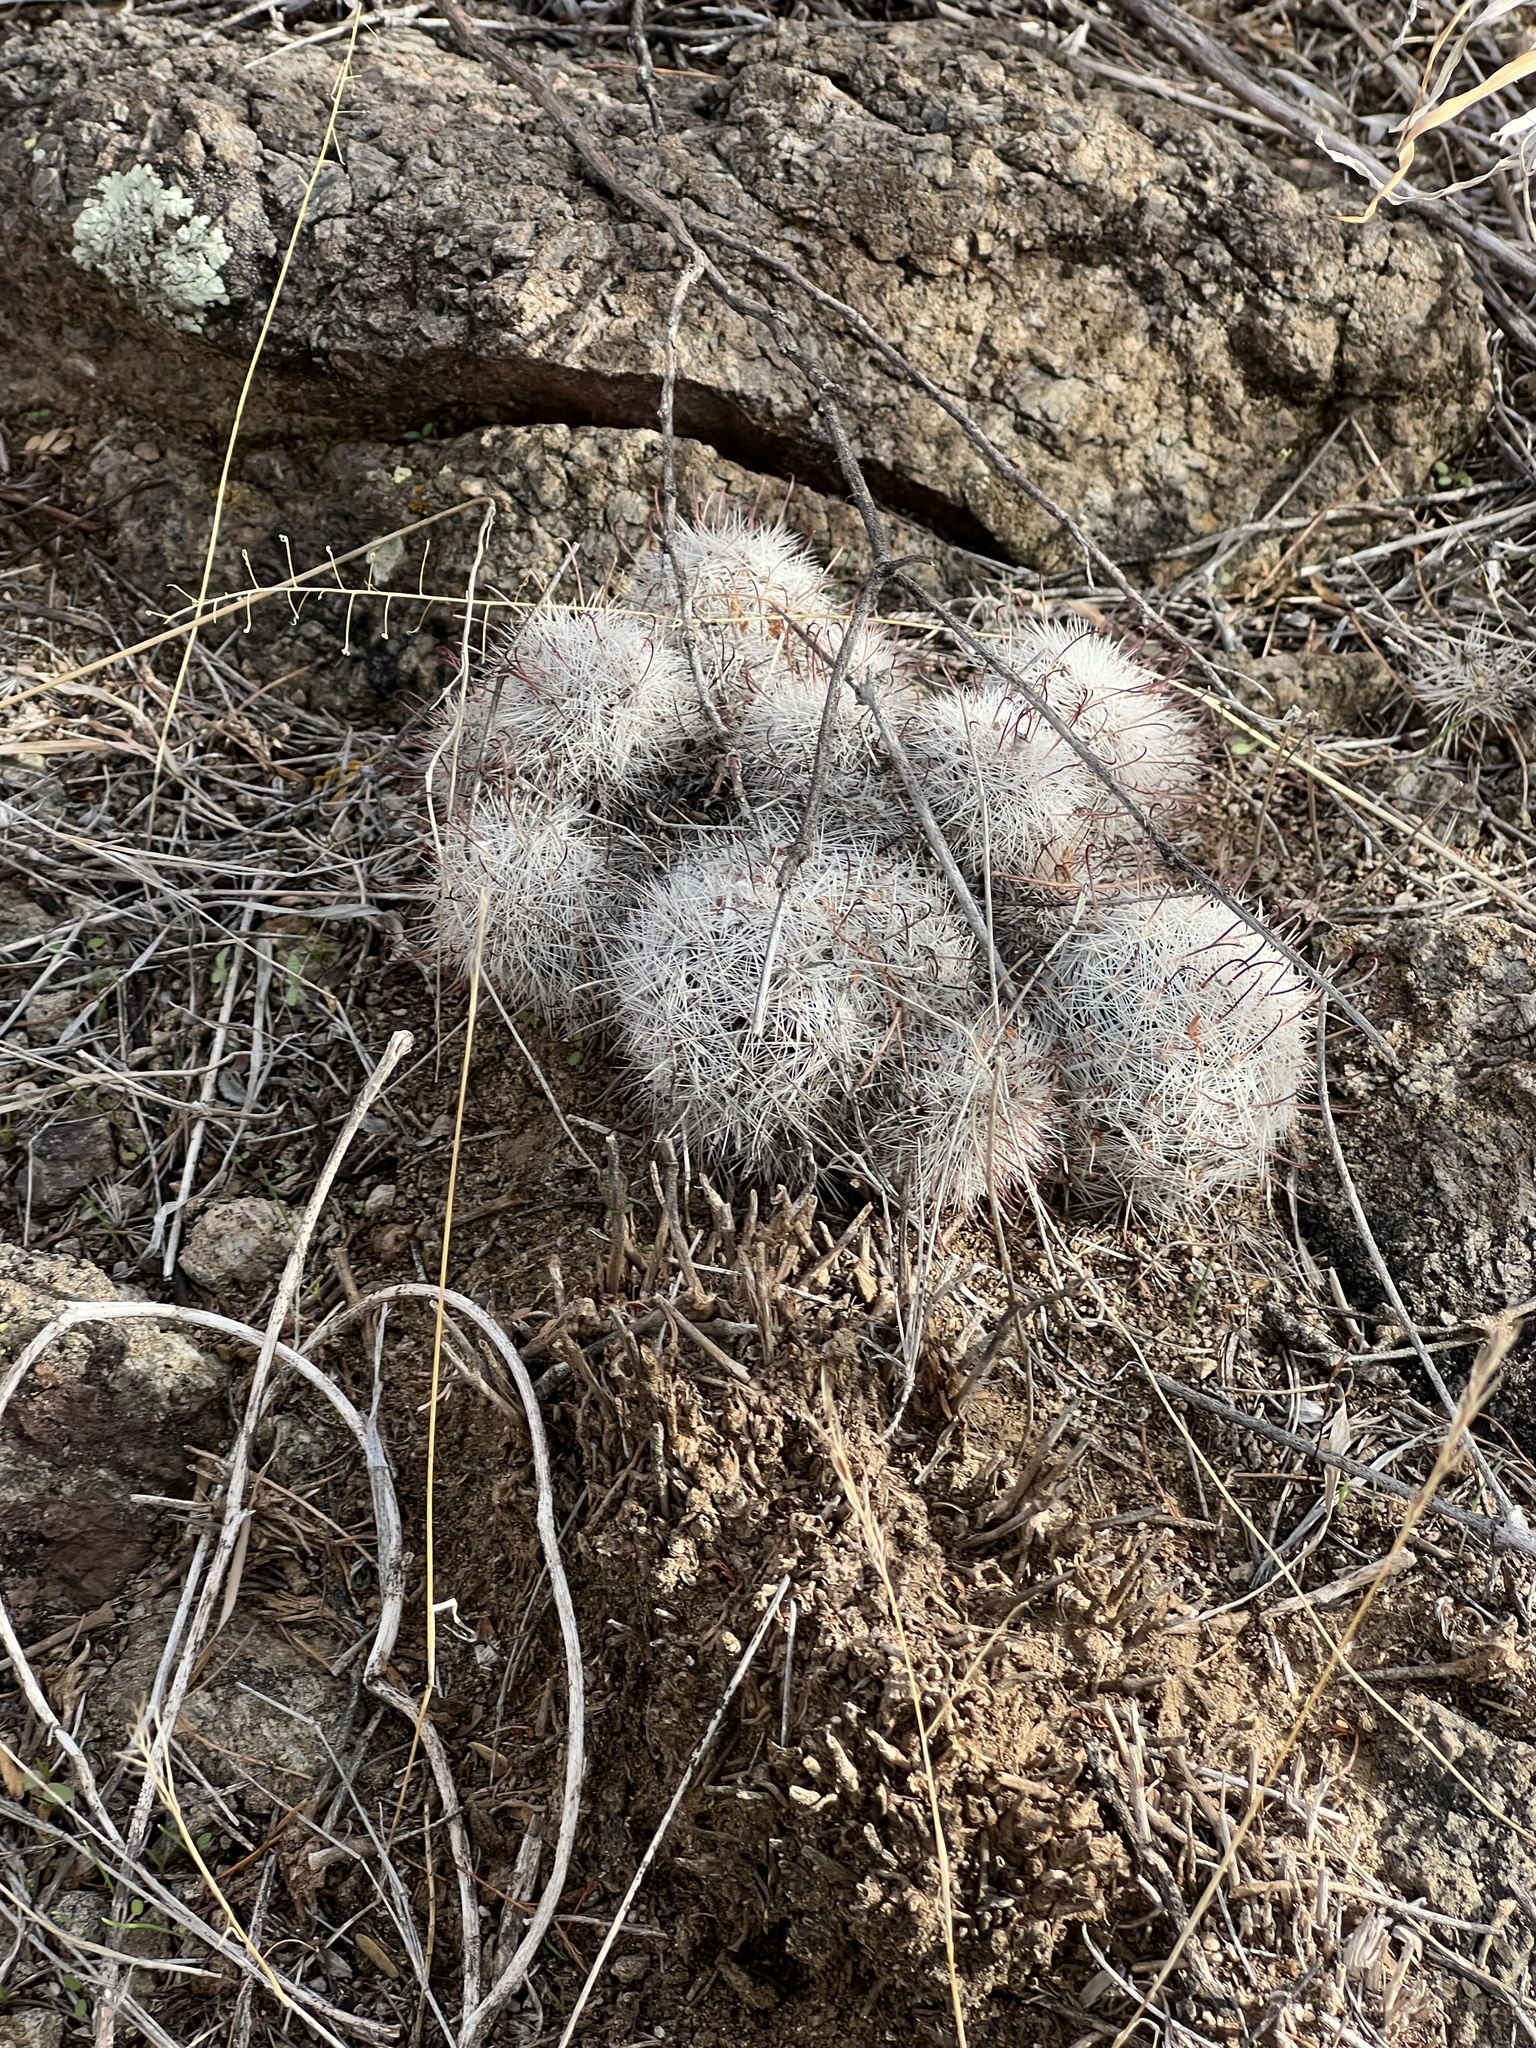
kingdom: Plantae
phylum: Tracheophyta
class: Magnoliopsida
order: Caryophyllales
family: Cactaceae
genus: Cochemiea
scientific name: Cochemiea grahamii
